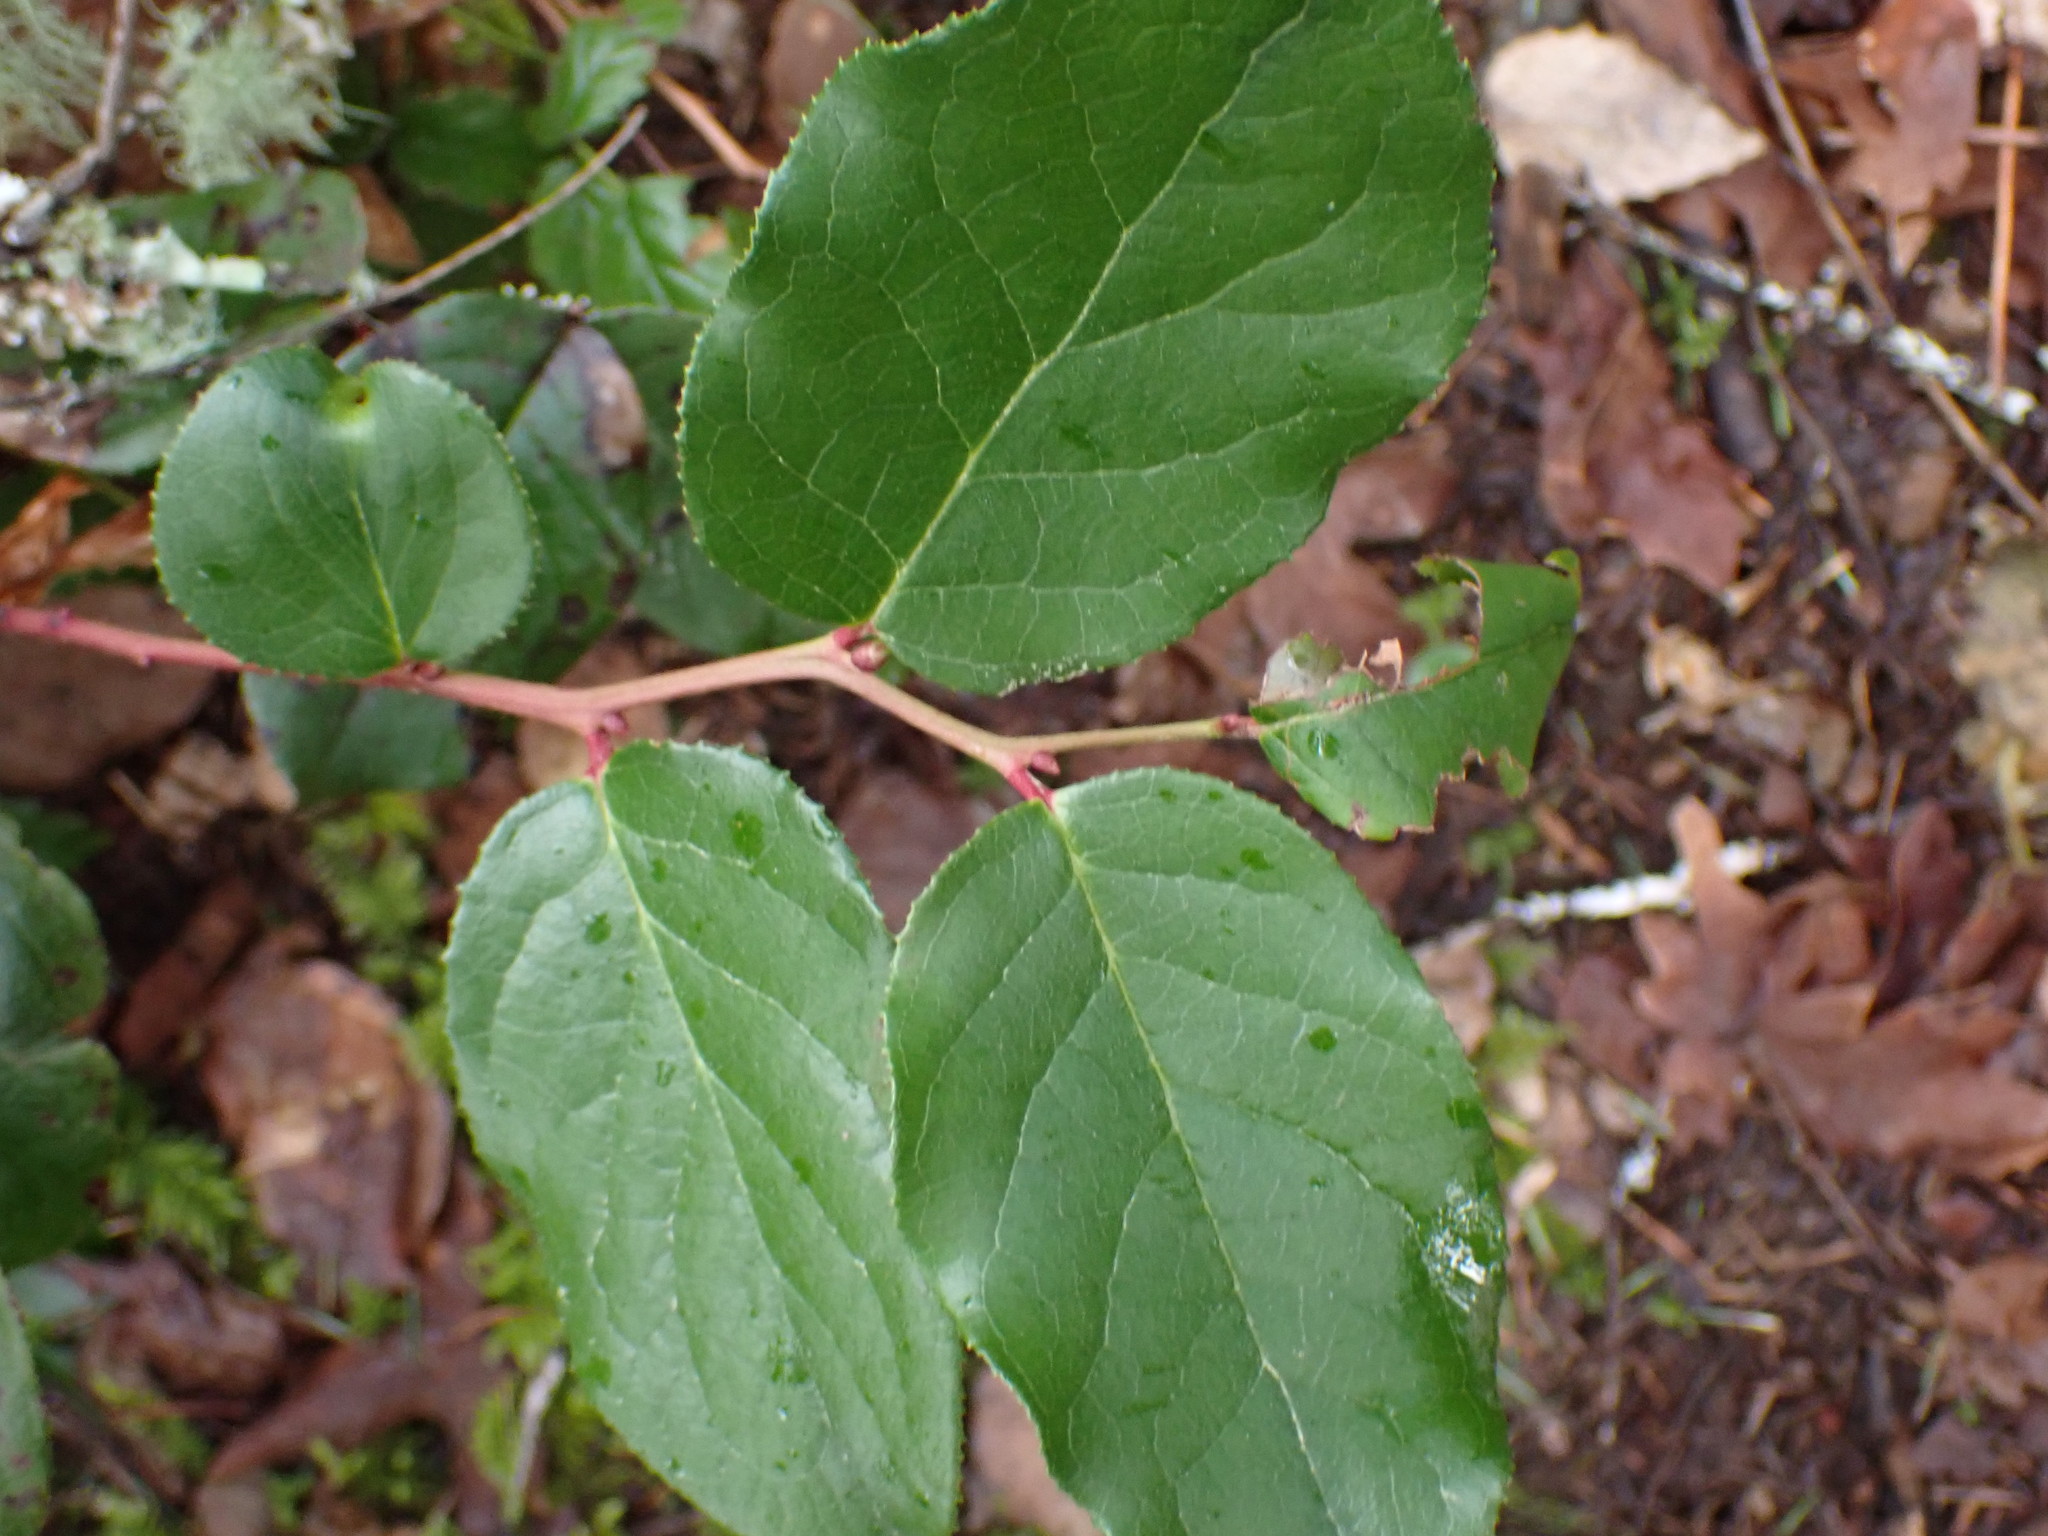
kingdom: Plantae
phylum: Tracheophyta
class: Magnoliopsida
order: Ericales
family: Ericaceae
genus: Gaultheria
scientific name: Gaultheria shallon
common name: Shallon
